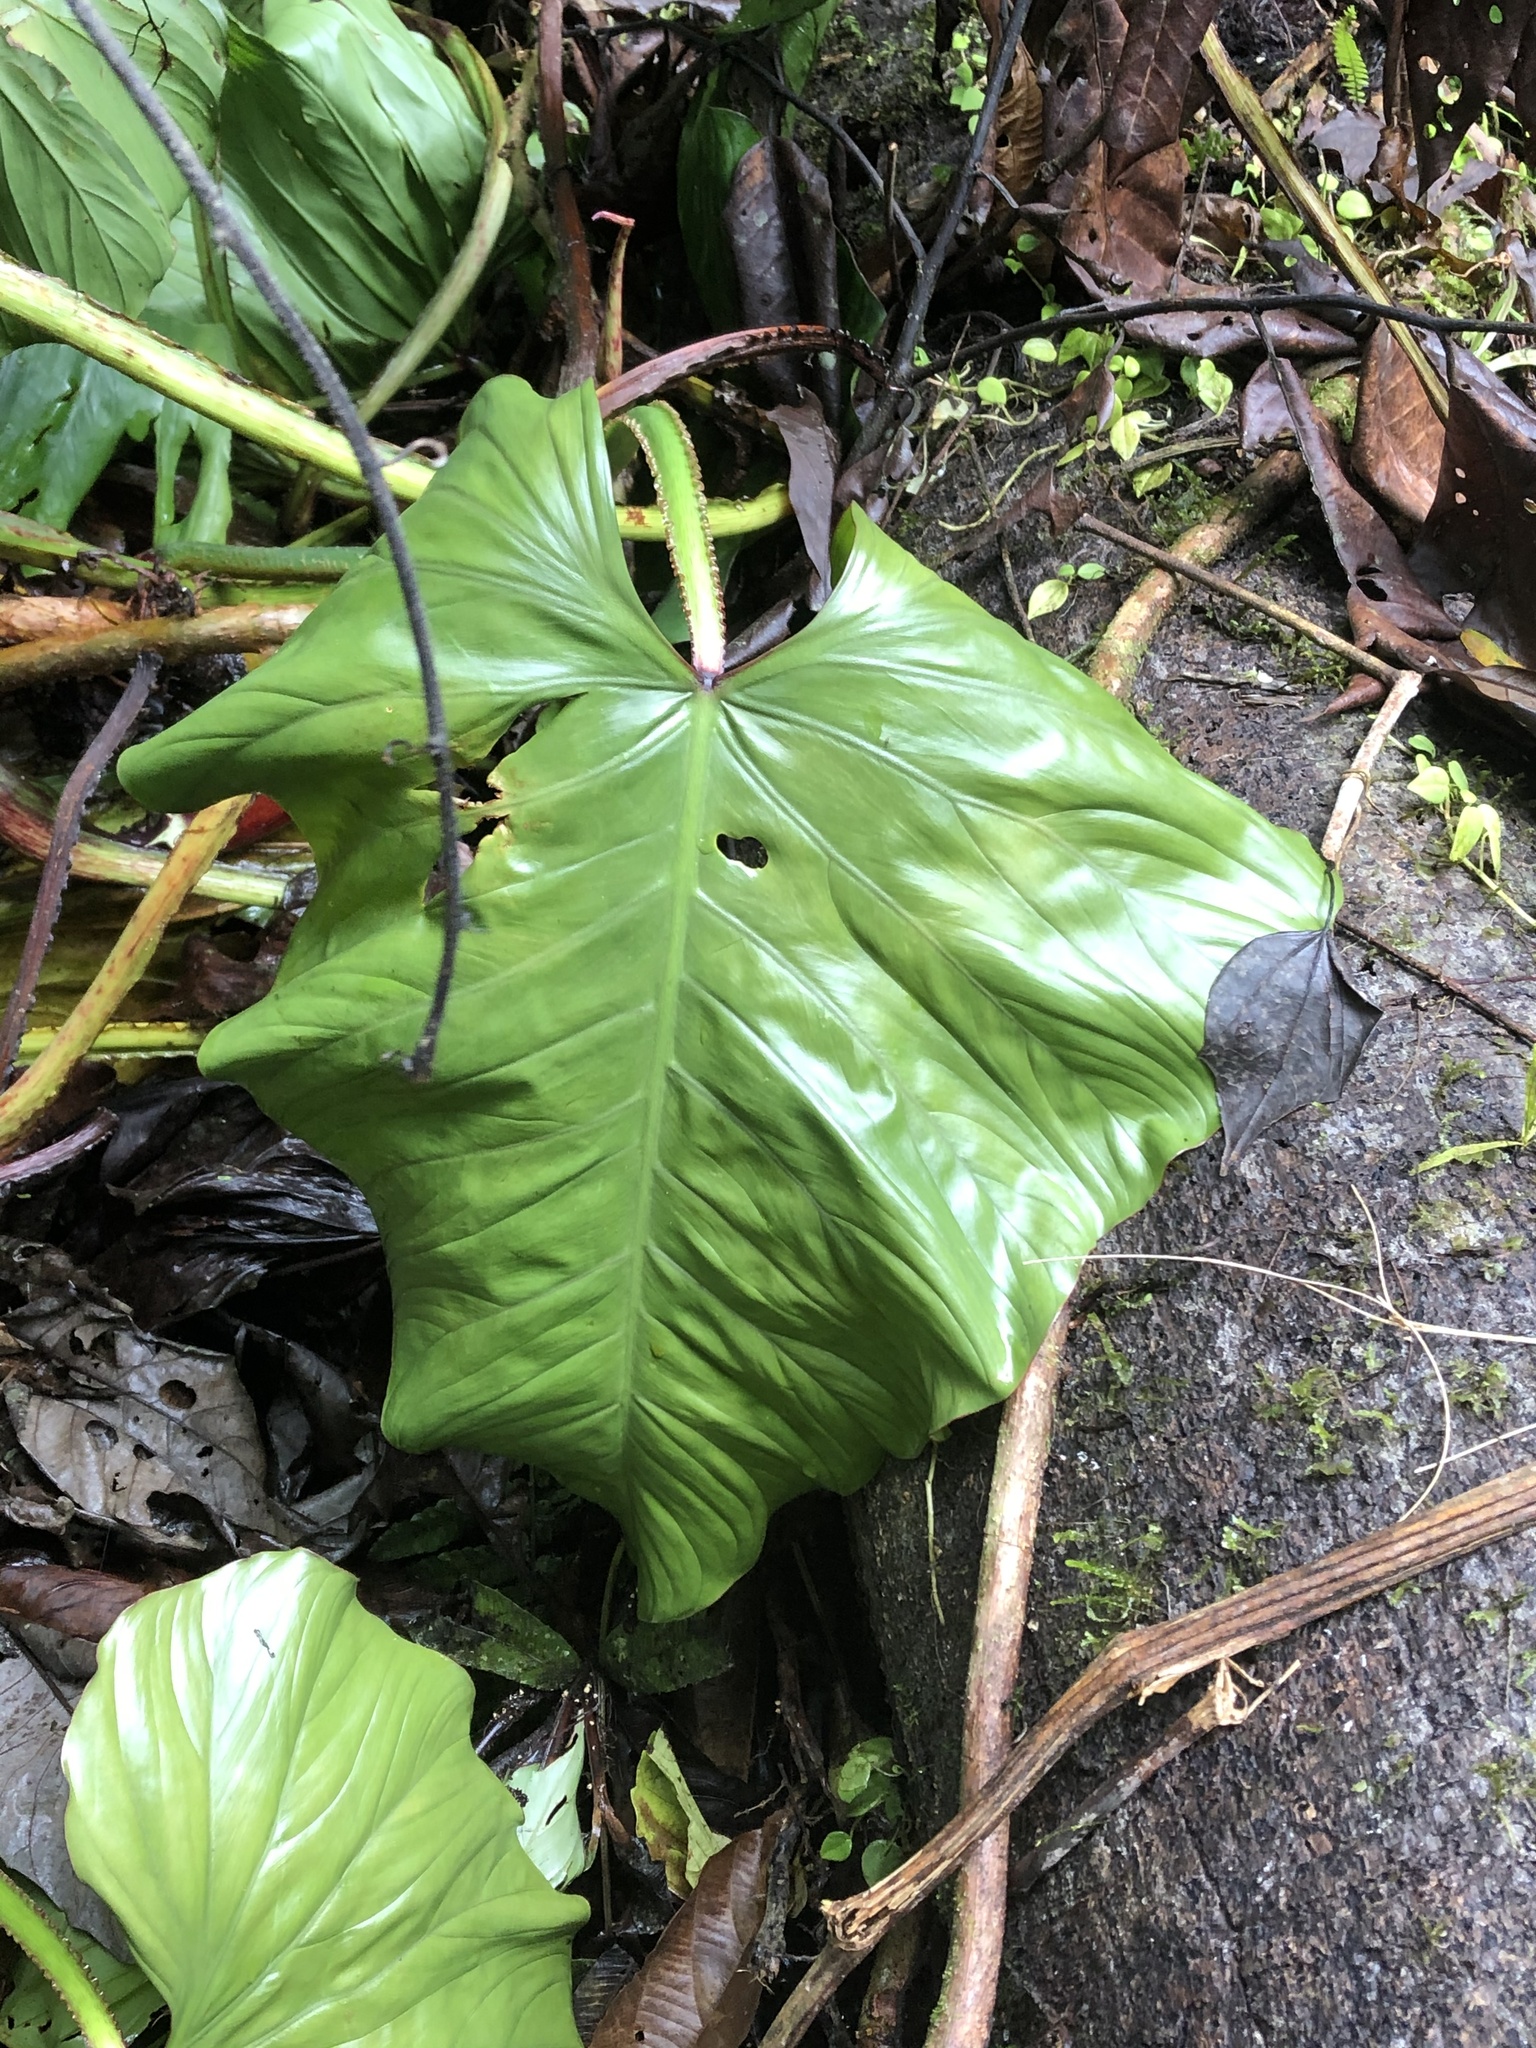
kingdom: Plantae
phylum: Tracheophyta
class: Liliopsida
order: Alismatales
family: Araceae
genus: Philodendron
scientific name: Philodendron ernestii
